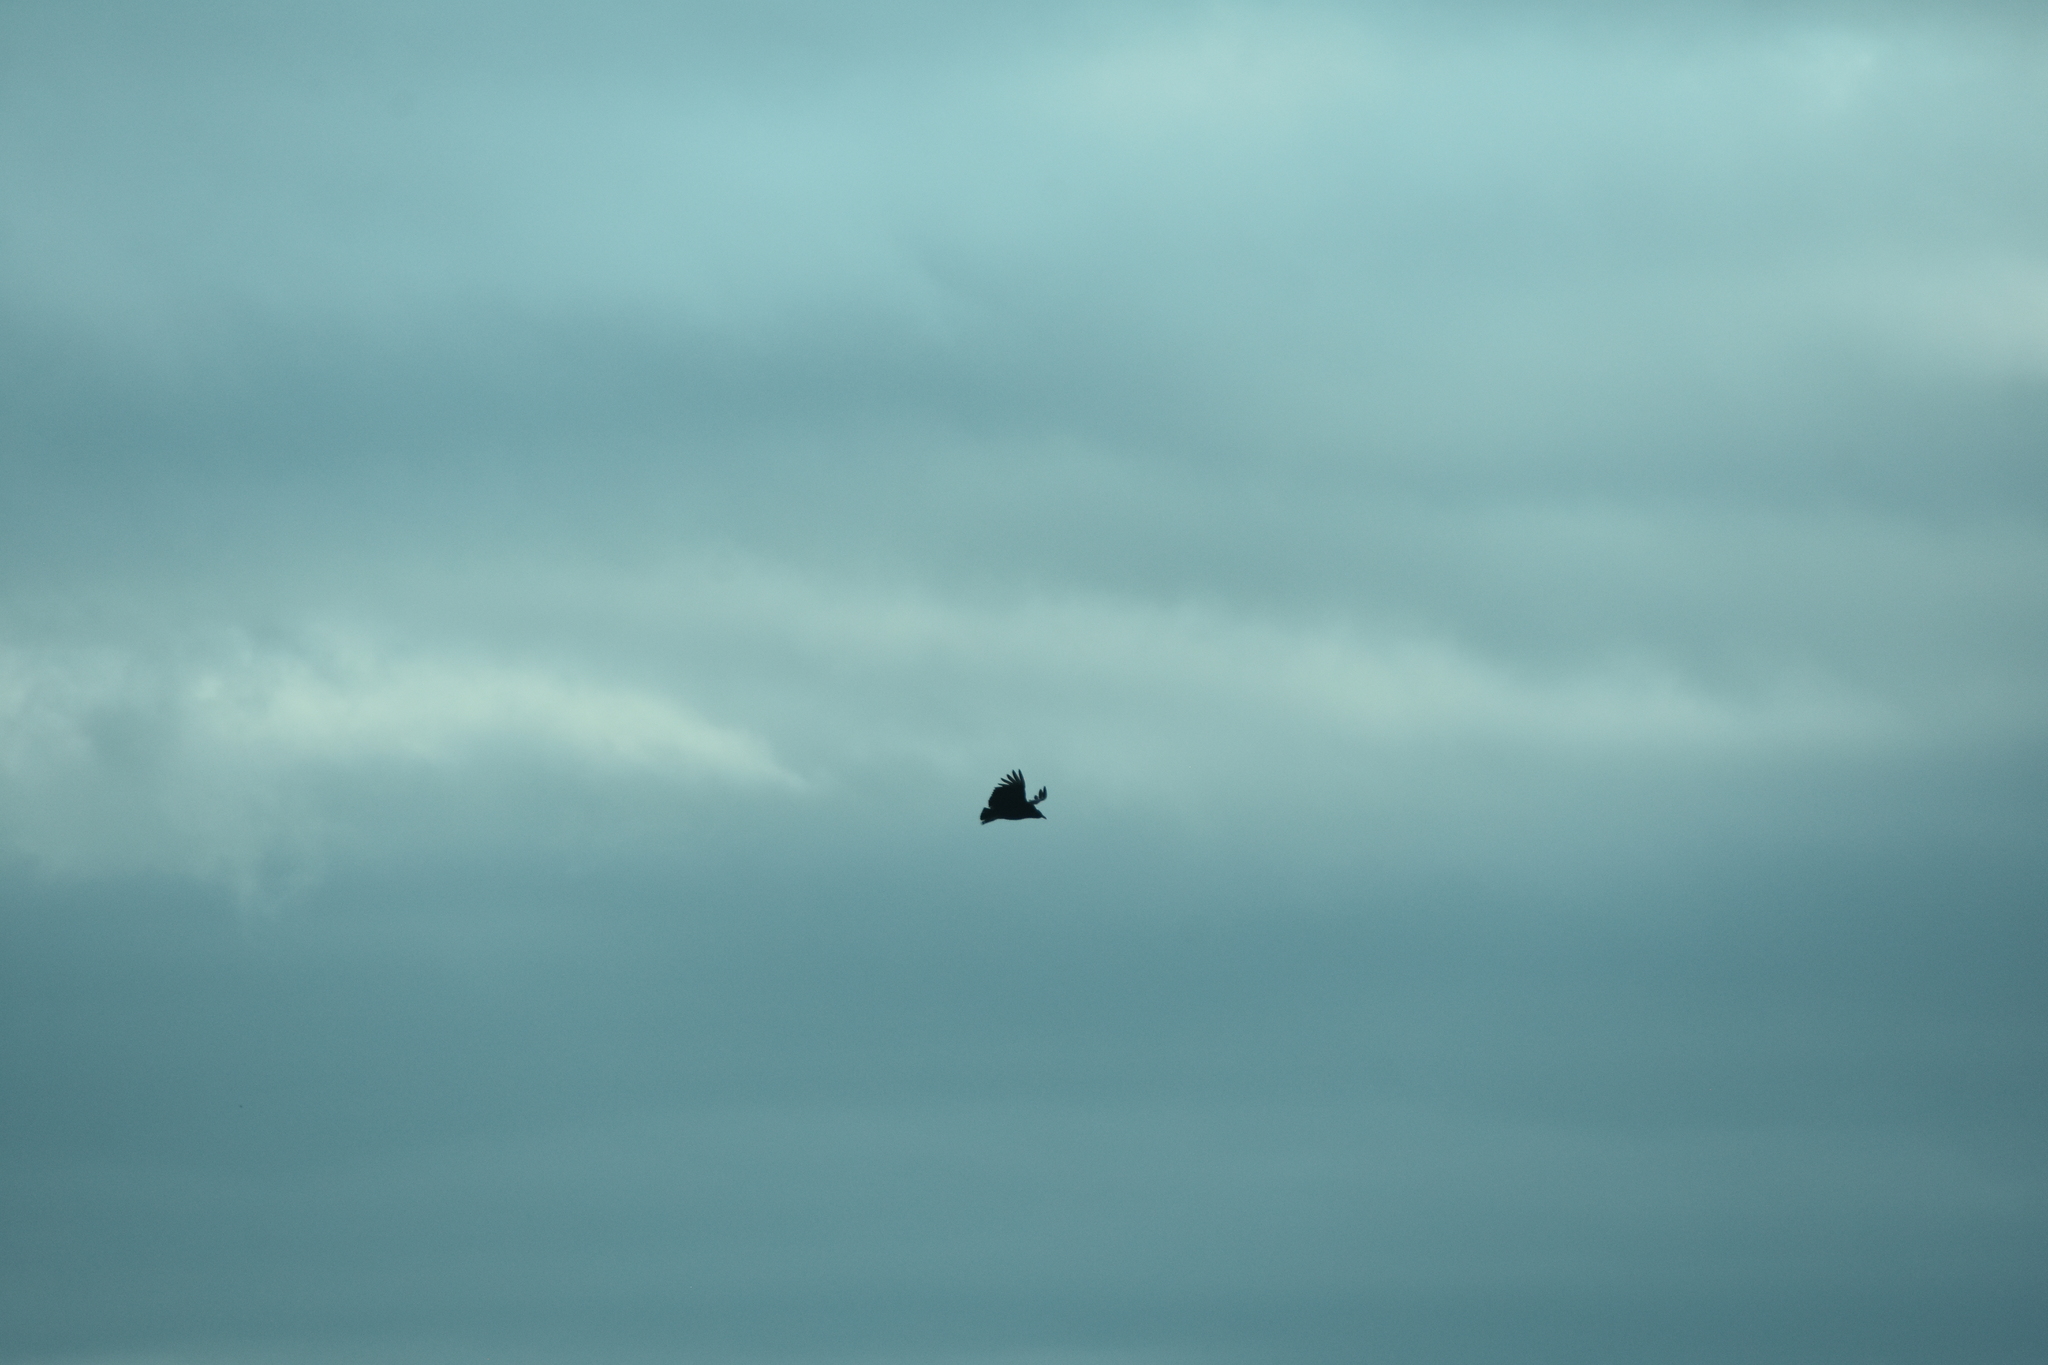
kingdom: Animalia
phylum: Chordata
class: Aves
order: Accipitriformes
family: Cathartidae
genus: Coragyps
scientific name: Coragyps atratus
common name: Black vulture
